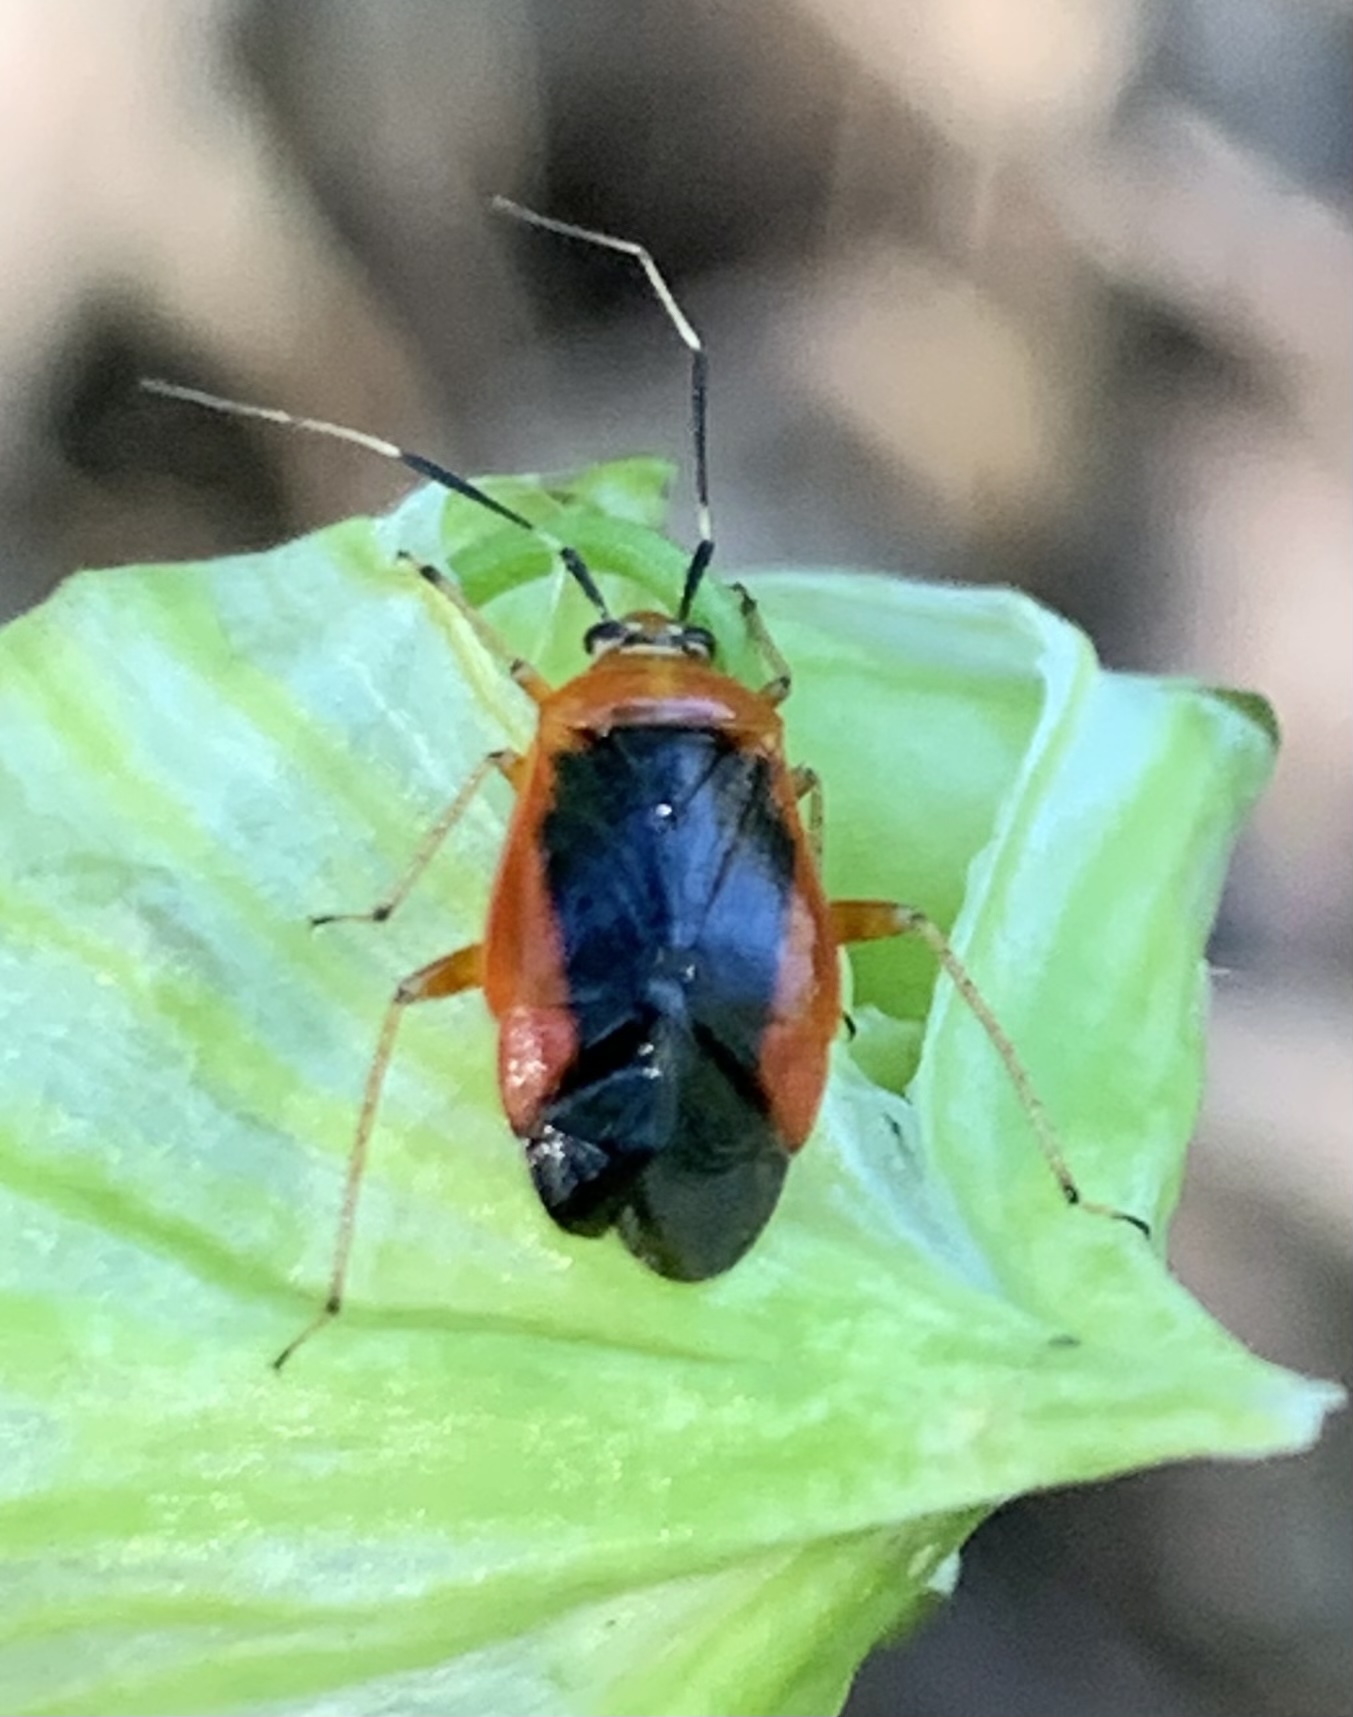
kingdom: Animalia
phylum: Arthropoda
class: Insecta
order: Hemiptera
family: Miridae
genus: Metriorrhynchomiris
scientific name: Metriorrhynchomiris dislocatus
